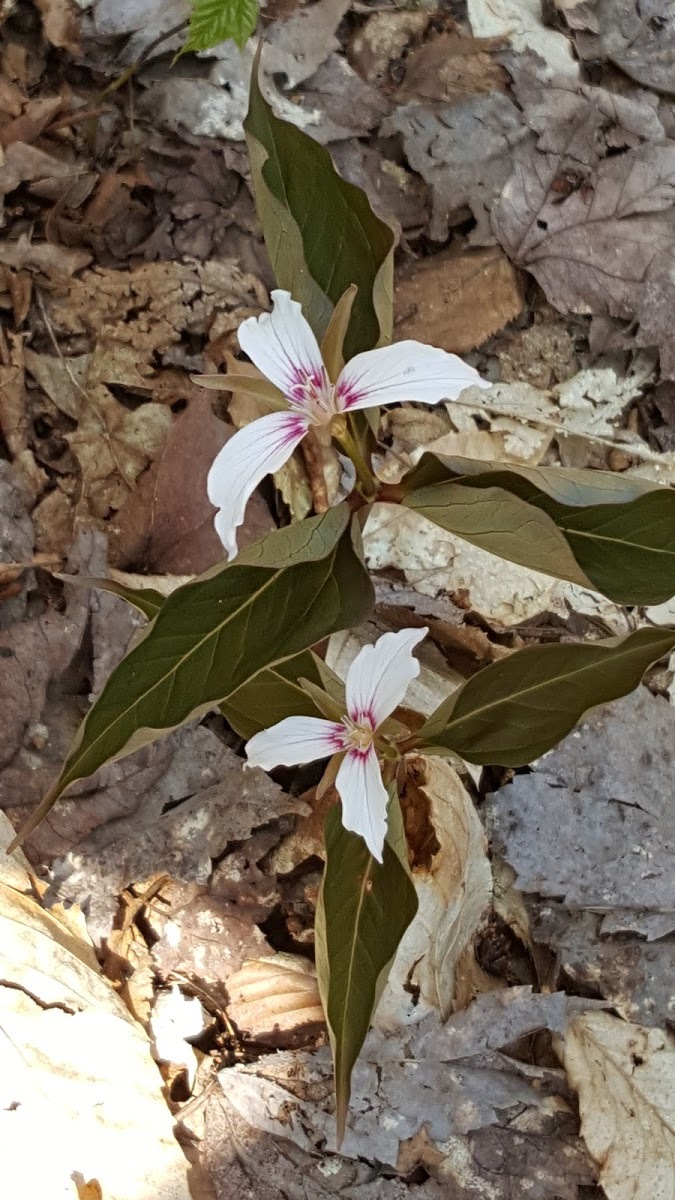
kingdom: Plantae
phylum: Tracheophyta
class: Liliopsida
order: Liliales
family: Melanthiaceae
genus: Trillium
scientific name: Trillium undulatum
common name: Paint trillium
